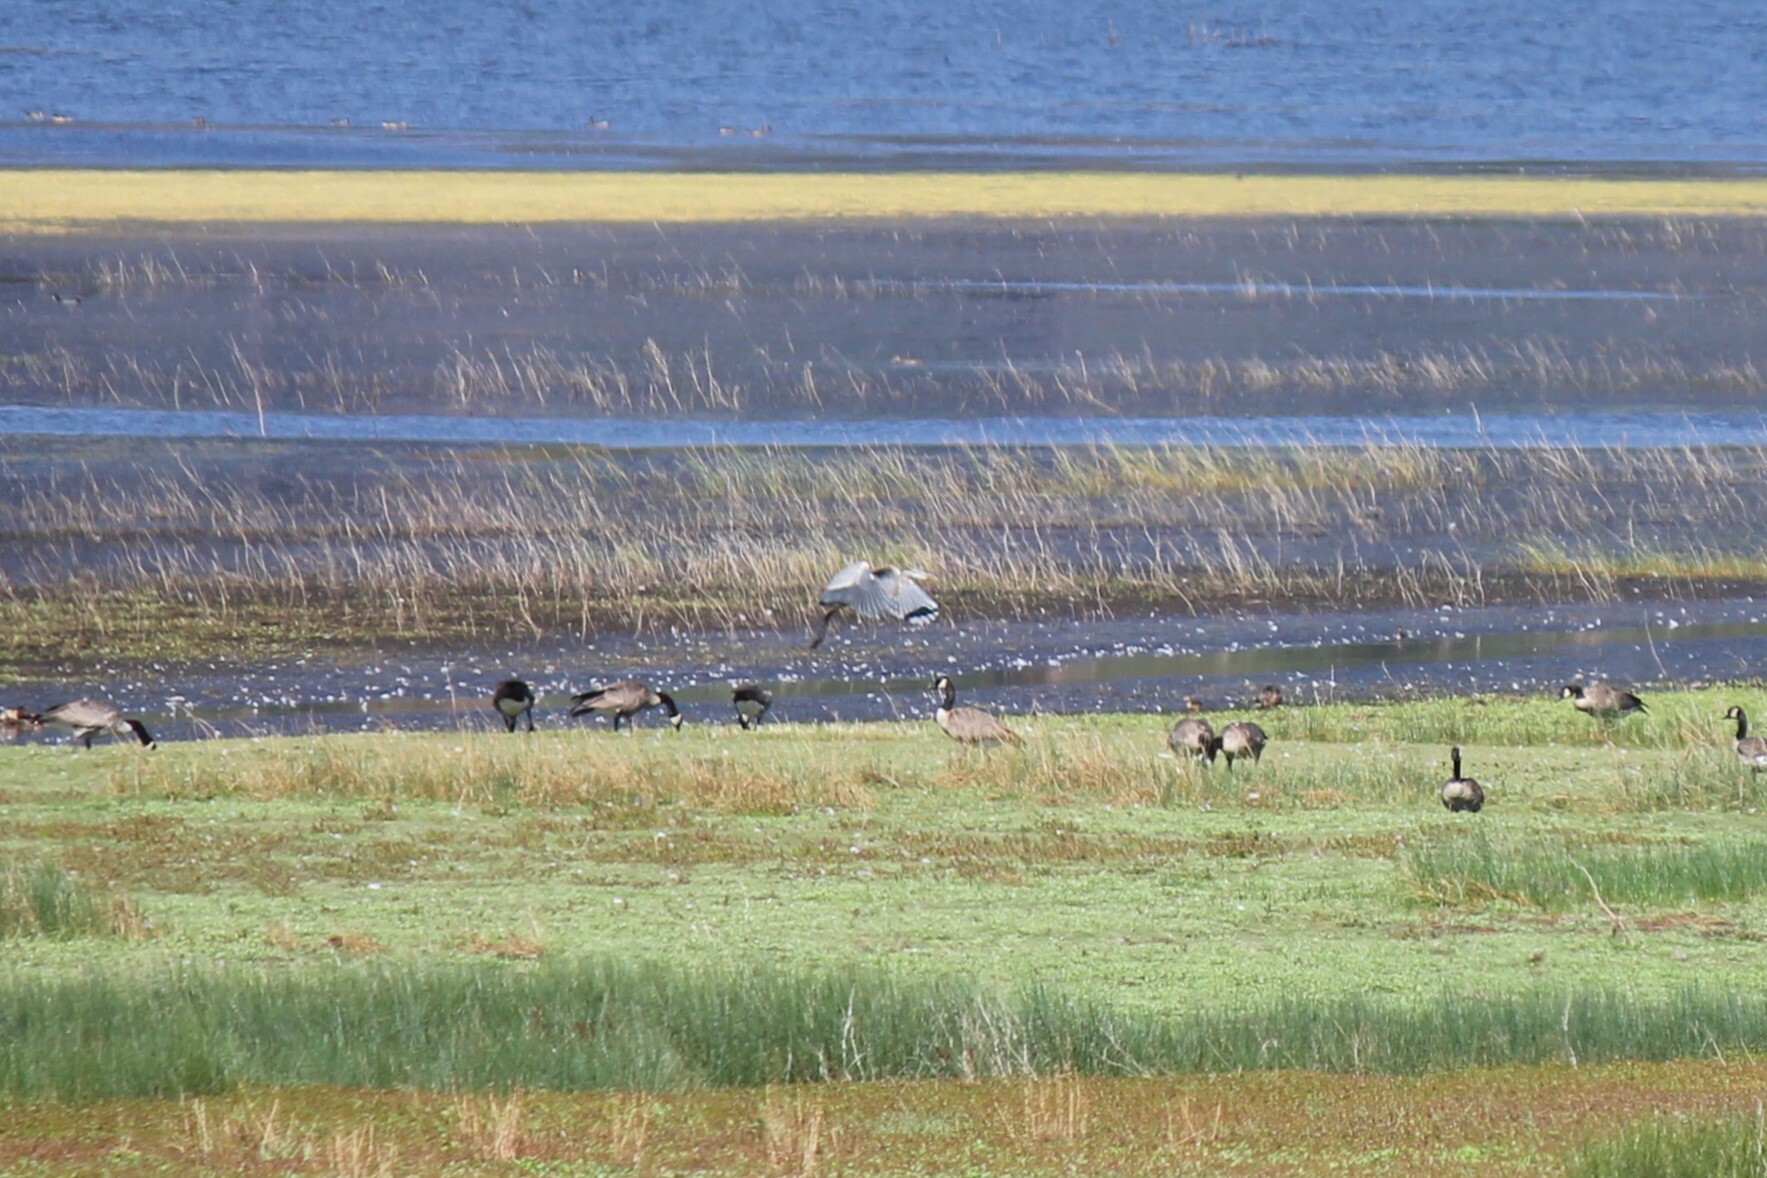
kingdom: Animalia
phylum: Chordata
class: Aves
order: Pelecaniformes
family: Ardeidae
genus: Ardea
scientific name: Ardea herodias
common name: Great blue heron
